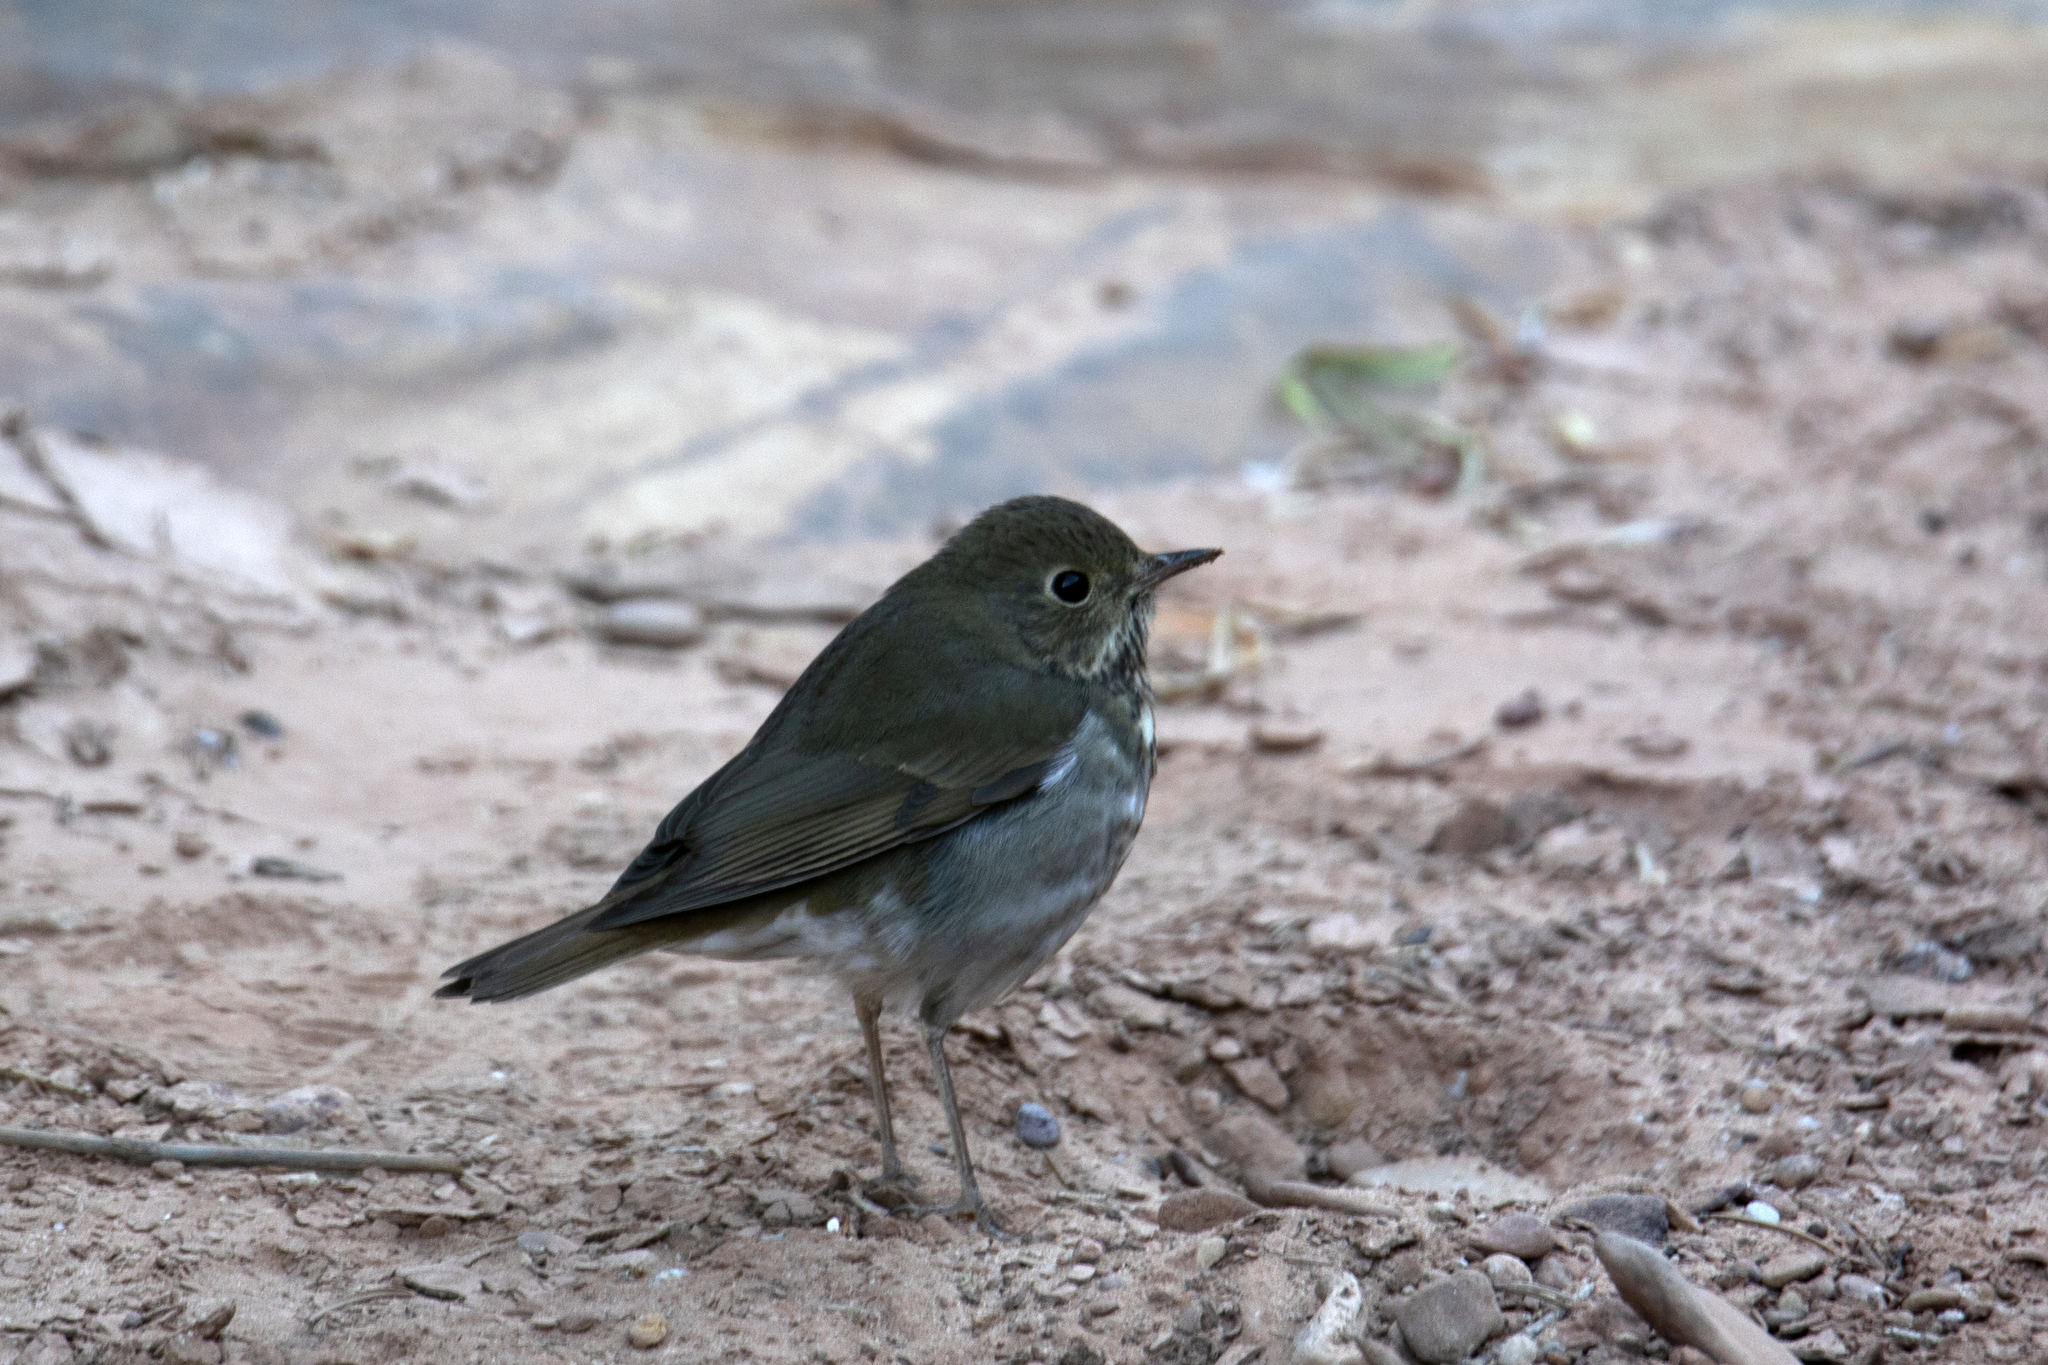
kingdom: Animalia
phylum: Chordata
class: Aves
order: Passeriformes
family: Turdidae
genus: Catharus
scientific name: Catharus guttatus
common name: Hermit thrush
